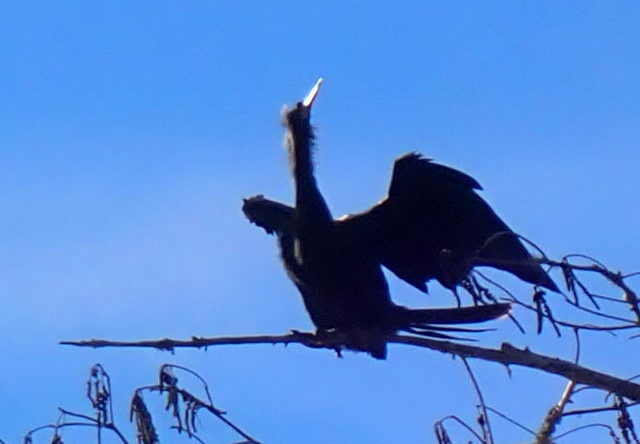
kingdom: Animalia
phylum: Chordata
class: Aves
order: Suliformes
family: Anhingidae
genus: Anhinga
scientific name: Anhinga anhinga
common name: Anhinga
